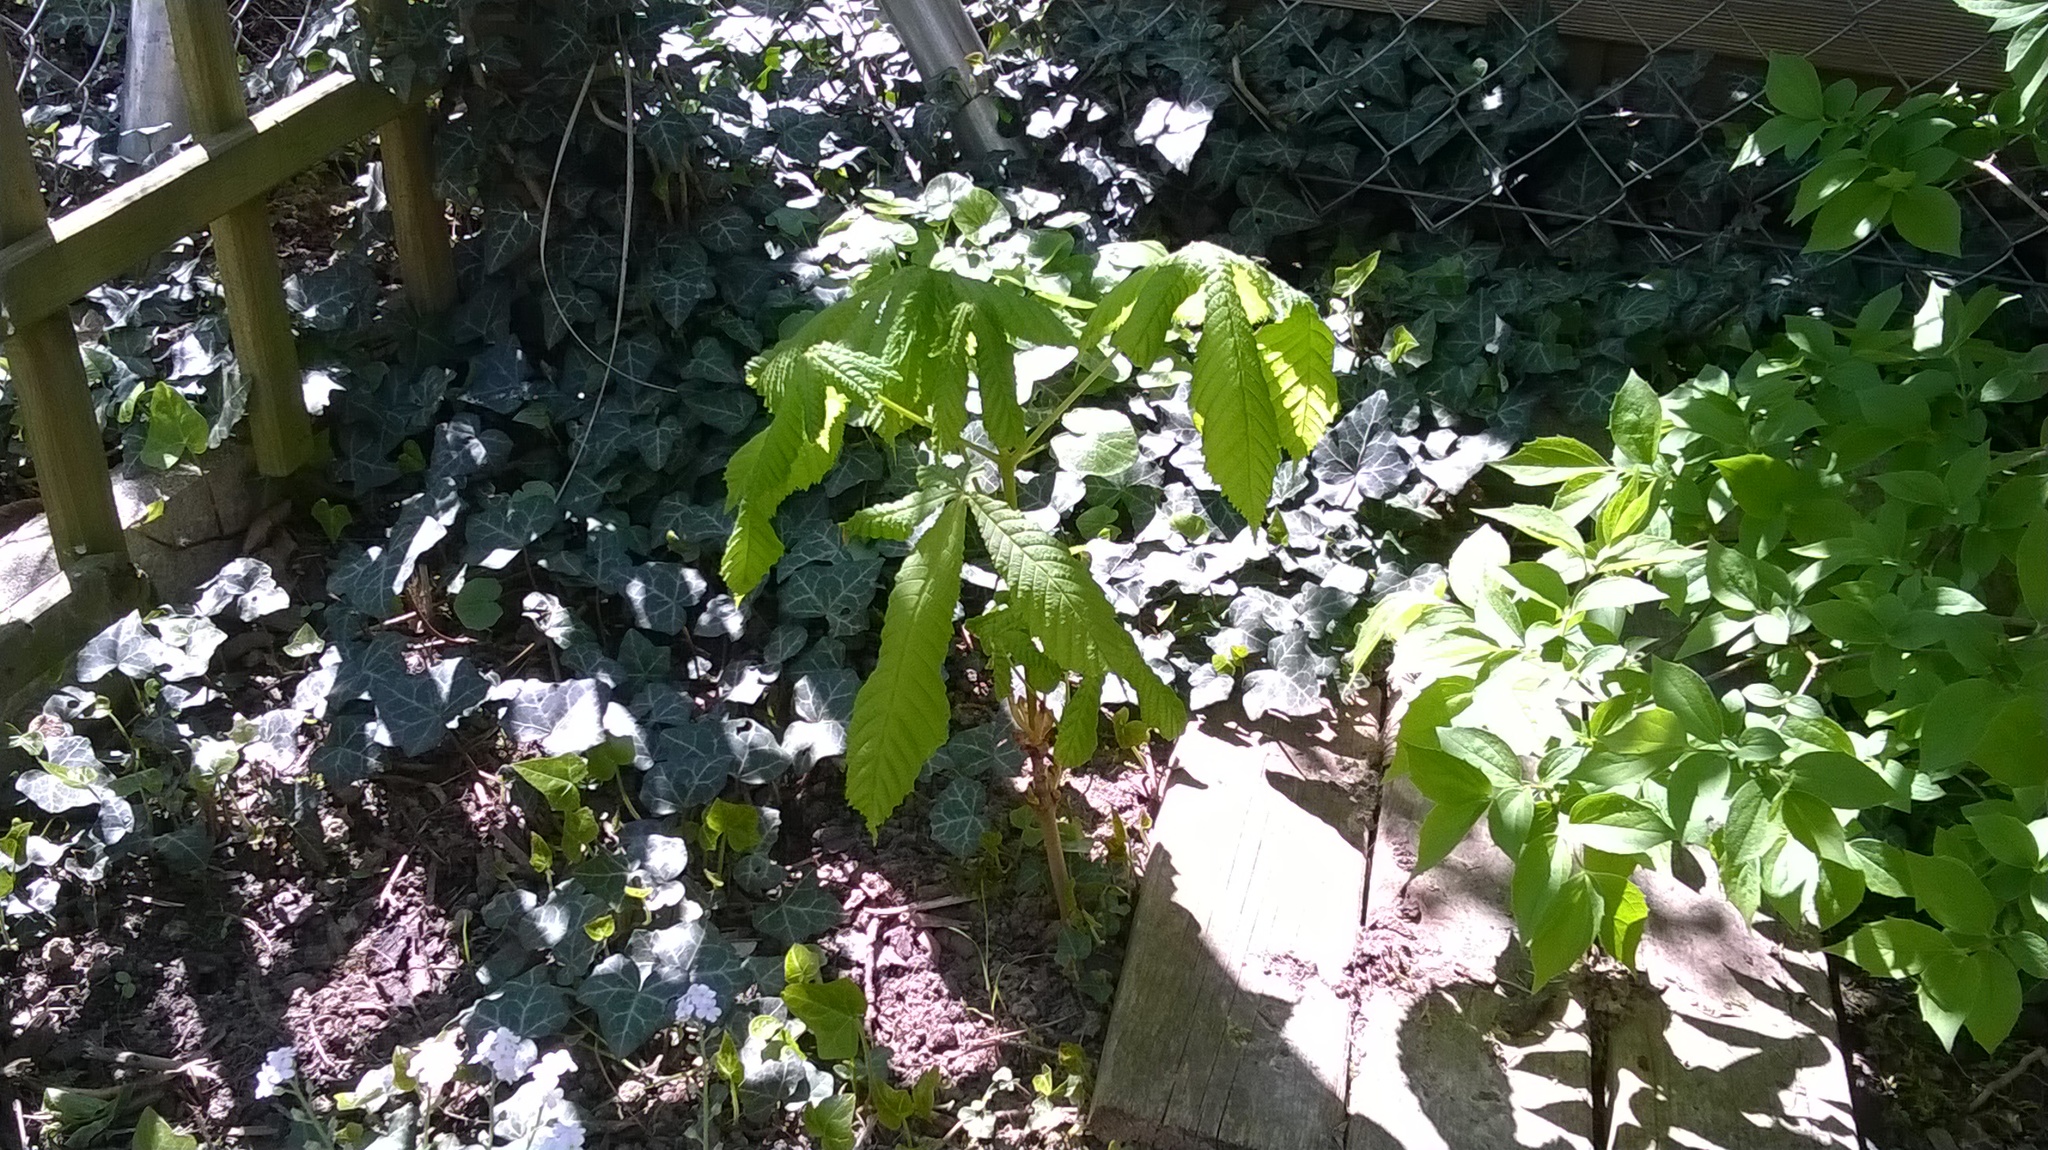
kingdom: Plantae
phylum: Tracheophyta
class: Magnoliopsida
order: Sapindales
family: Sapindaceae
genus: Aesculus
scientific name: Aesculus hippocastanum
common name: Horse-chestnut
